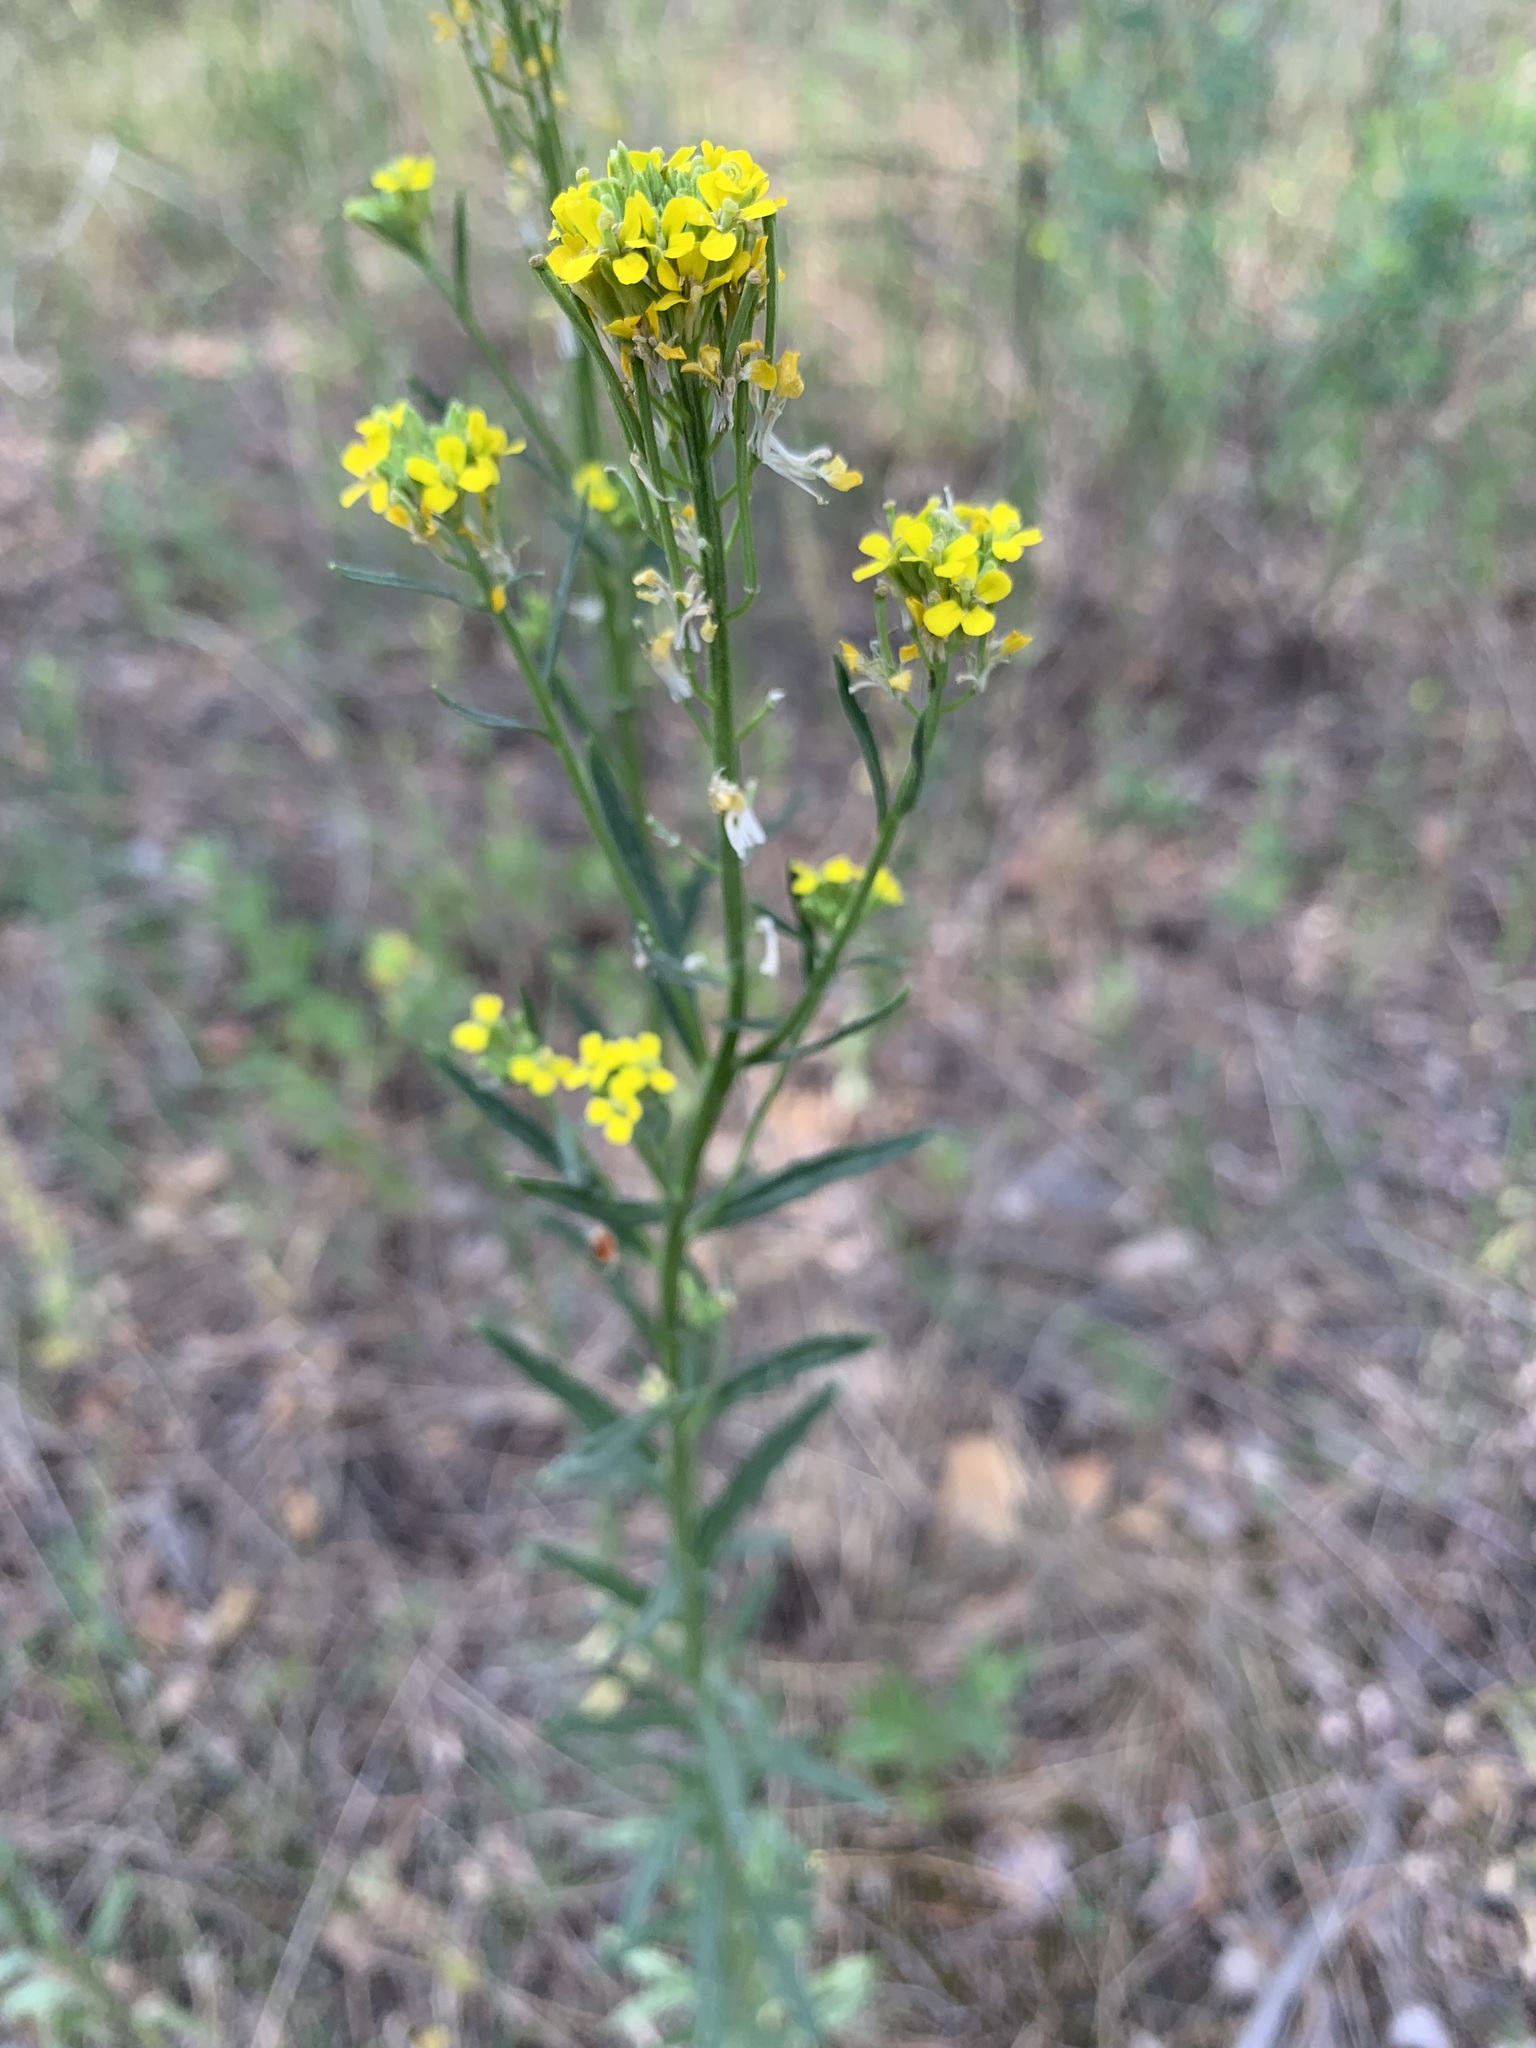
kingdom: Plantae
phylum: Tracheophyta
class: Magnoliopsida
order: Brassicales
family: Brassicaceae
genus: Erysimum
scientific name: Erysimum hieraciifolium
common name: European wallflower
